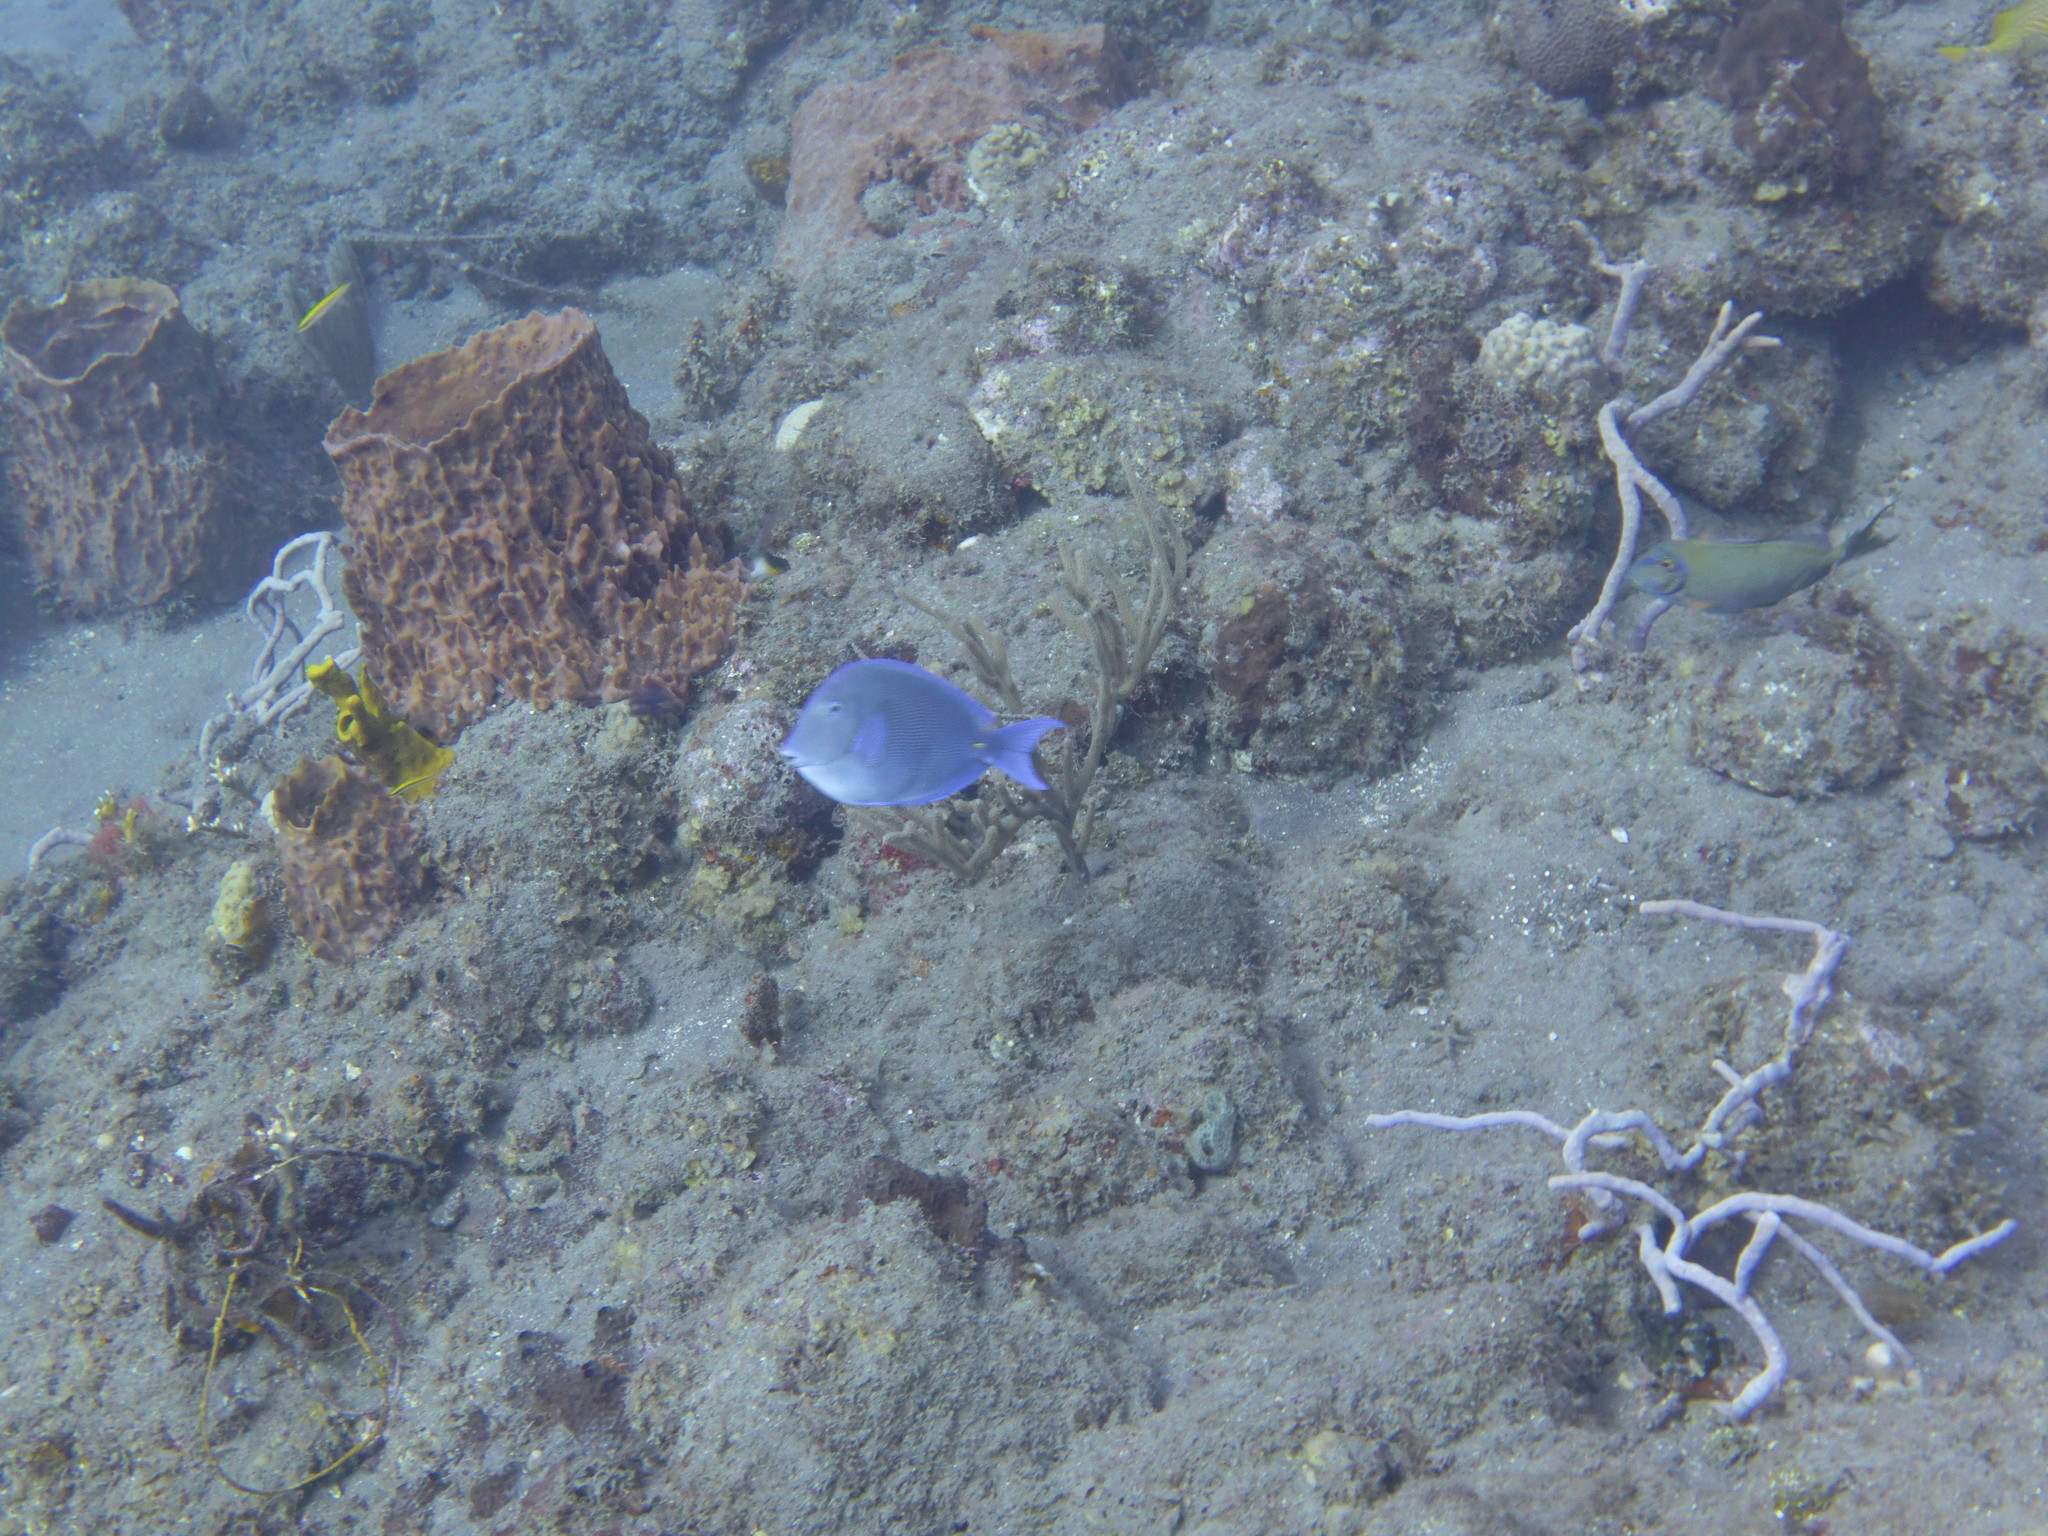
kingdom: Animalia
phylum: Chordata
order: Perciformes
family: Acanthuridae
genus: Acanthurus
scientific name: Acanthurus coeruleus
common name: Blue tang
